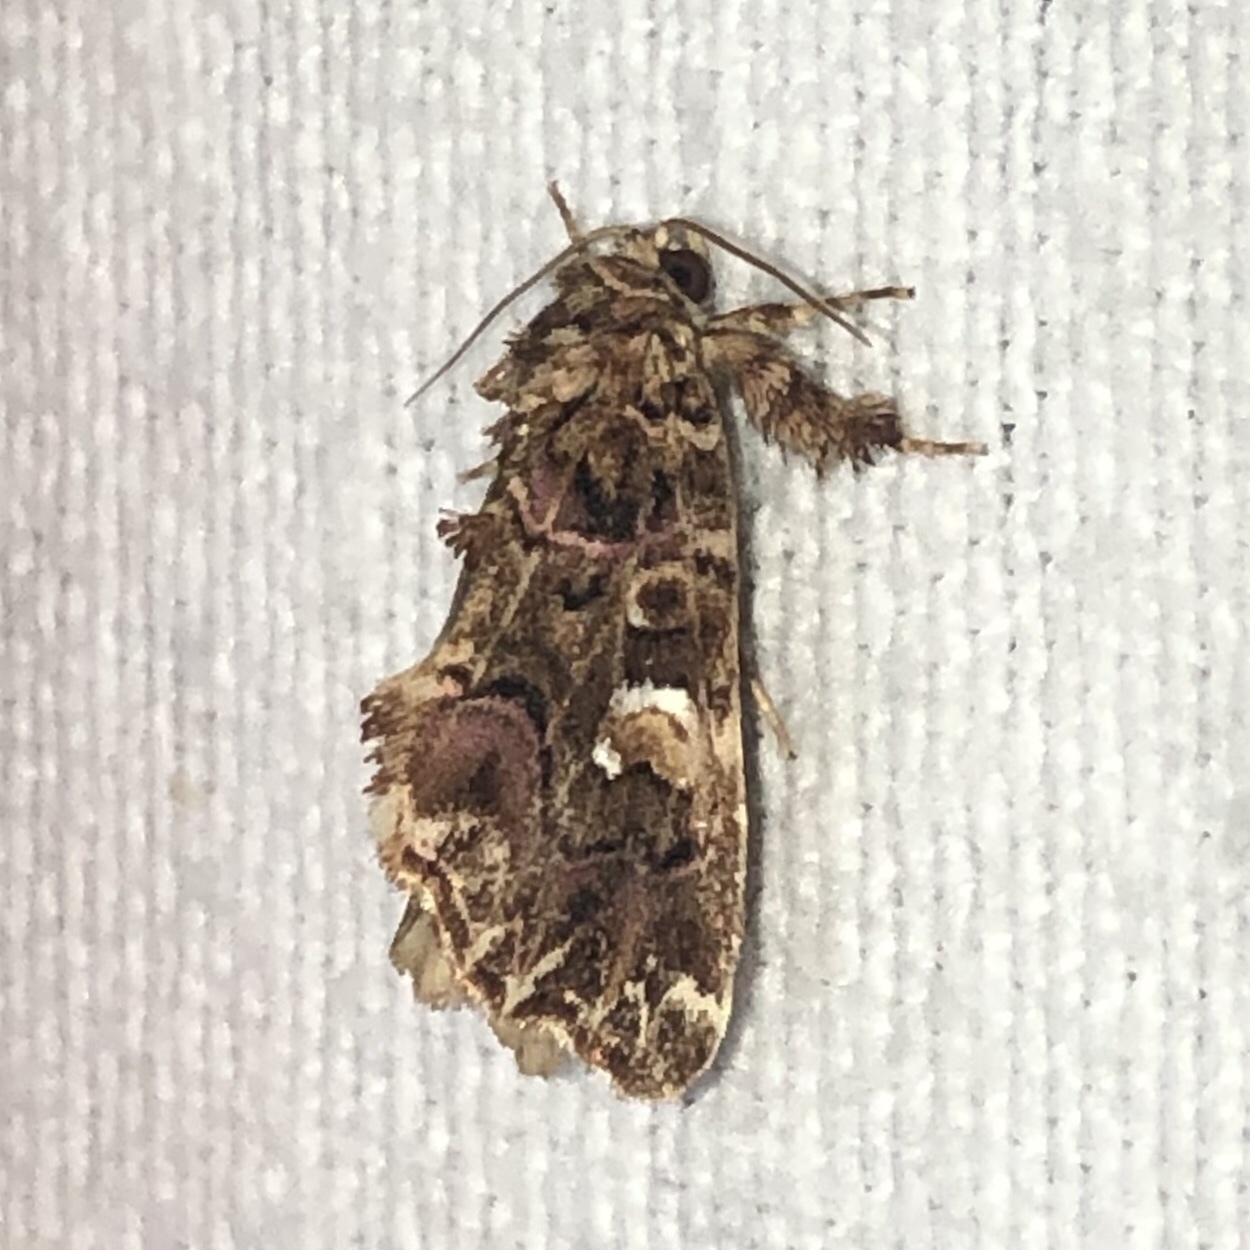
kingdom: Animalia
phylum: Arthropoda
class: Insecta
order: Lepidoptera
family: Noctuidae
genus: Callopistria
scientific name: Callopistria mollissima
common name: Pink-shaded fern moth
